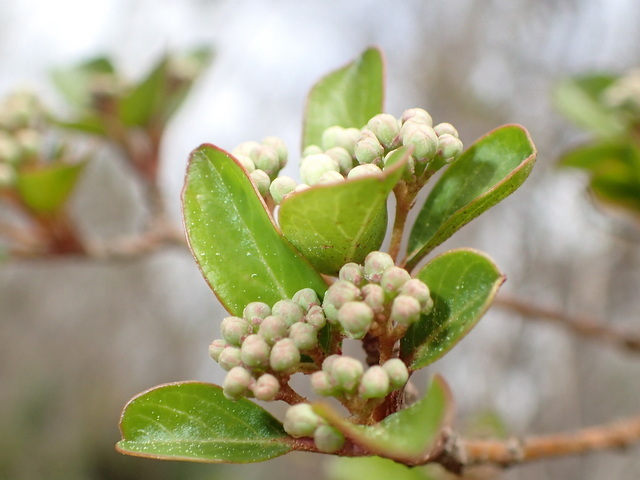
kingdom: Plantae
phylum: Tracheophyta
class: Magnoliopsida
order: Dipsacales
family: Viburnaceae
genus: Viburnum
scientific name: Viburnum obovatum
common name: Walter's viburnum
